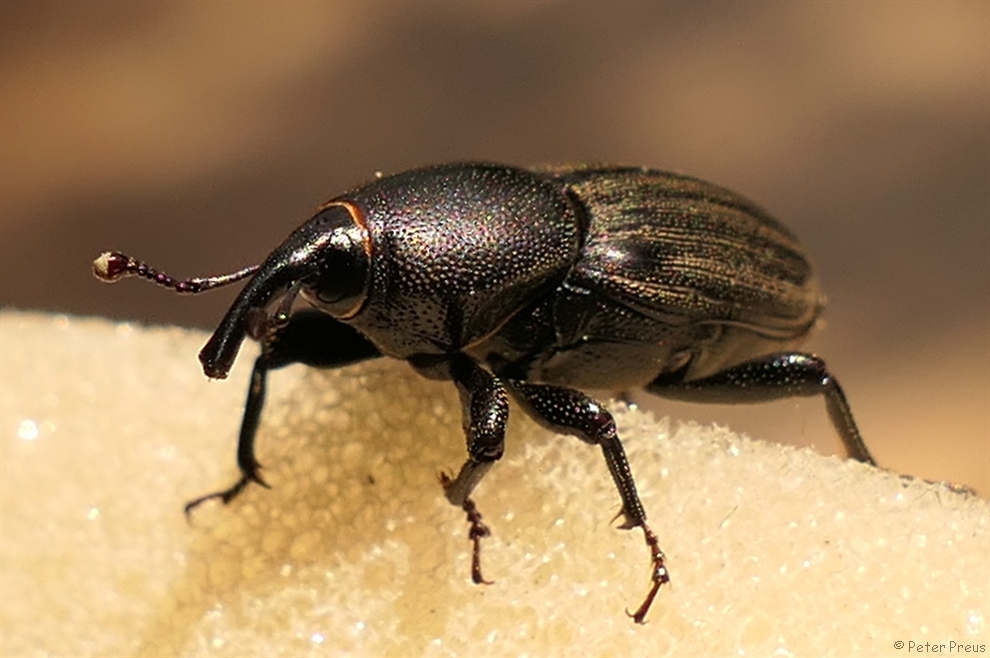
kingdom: Animalia
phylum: Arthropoda
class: Insecta
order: Coleoptera
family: Dryophthoridae
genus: Sphenophorus
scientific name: Sphenophorus striatopunctatus
